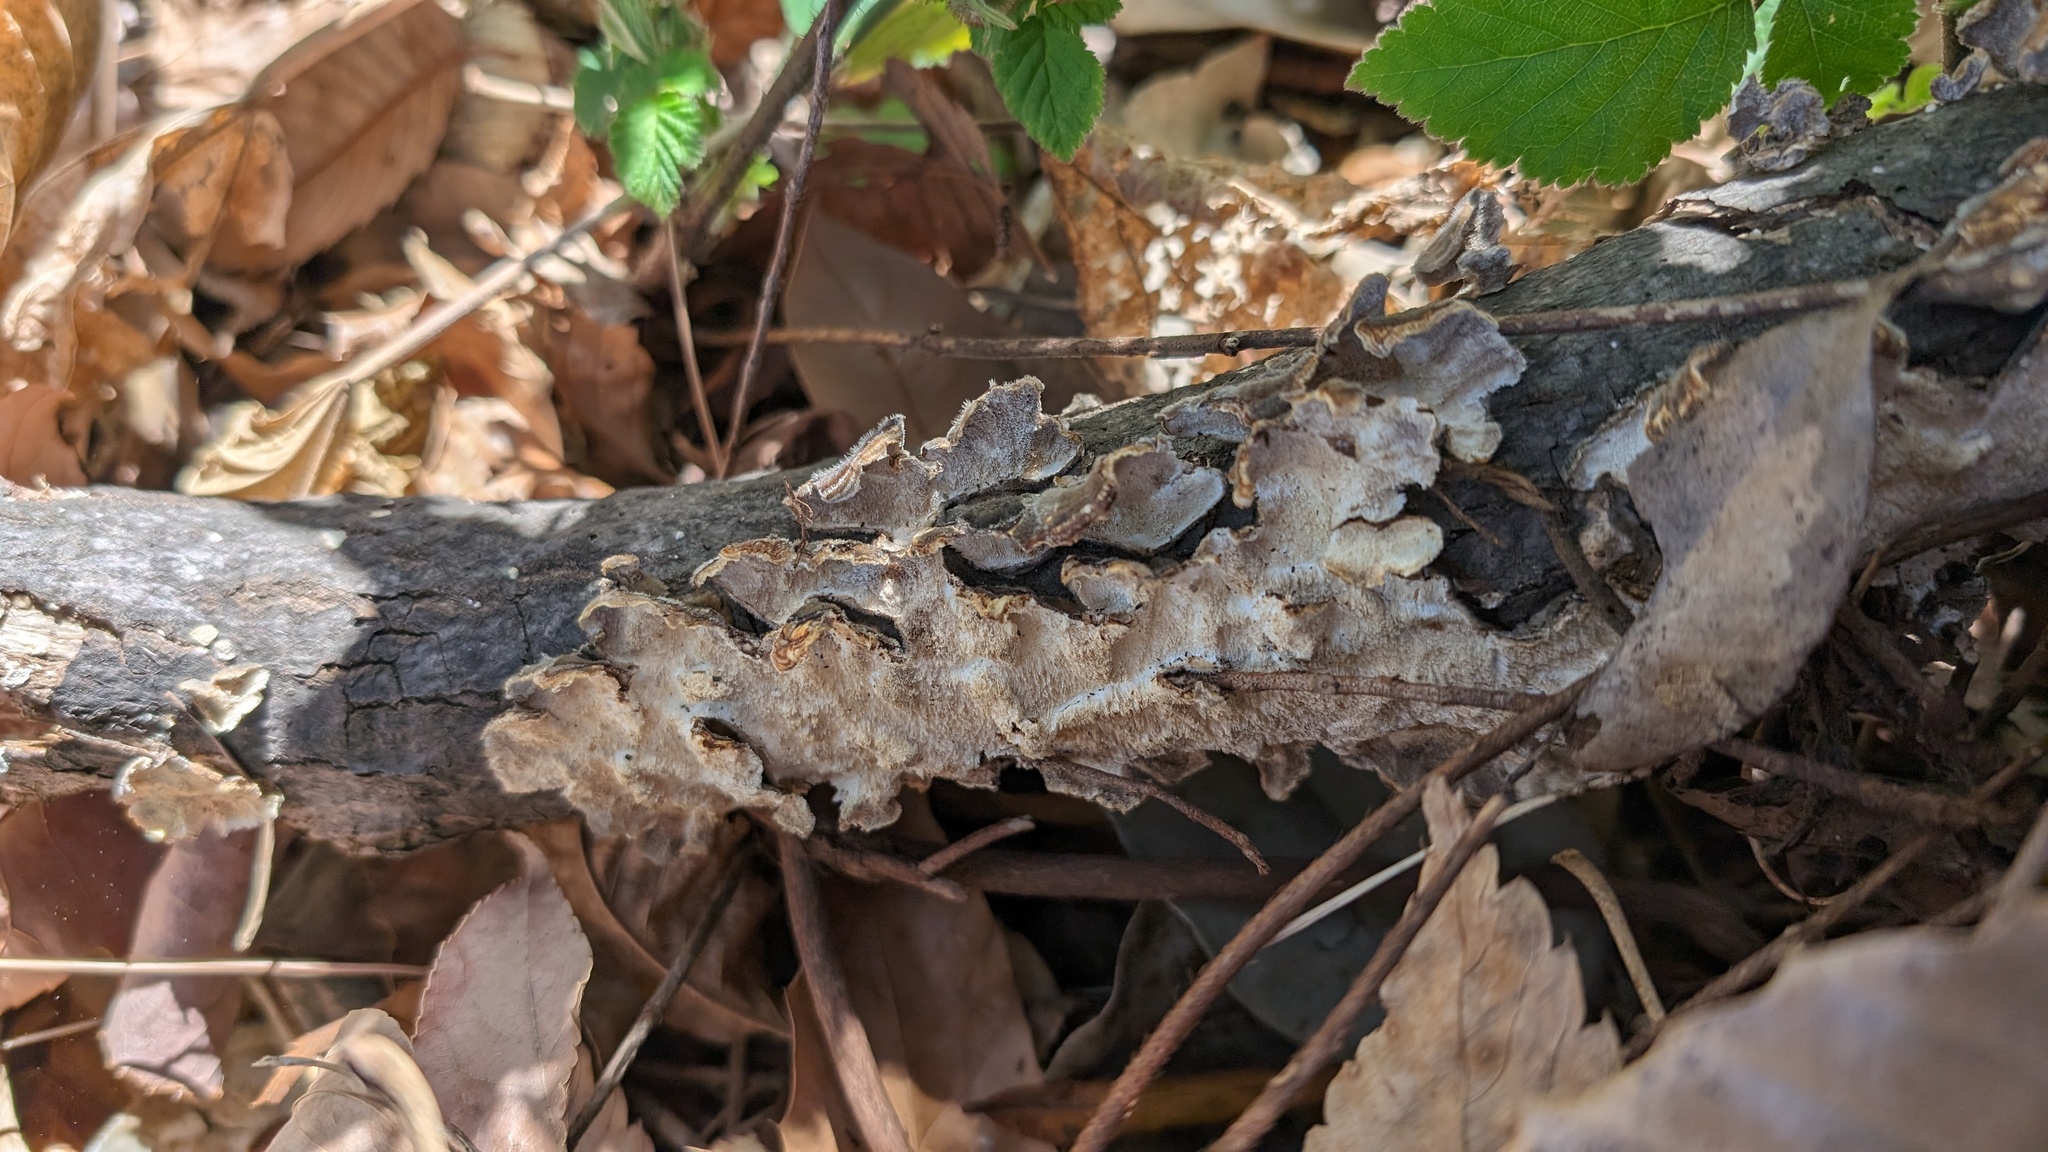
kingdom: Fungi
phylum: Basidiomycota
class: Agaricomycetes
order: Polyporales
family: Polyporaceae
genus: Trametes
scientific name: Trametes versicolor
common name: Turkeytail
